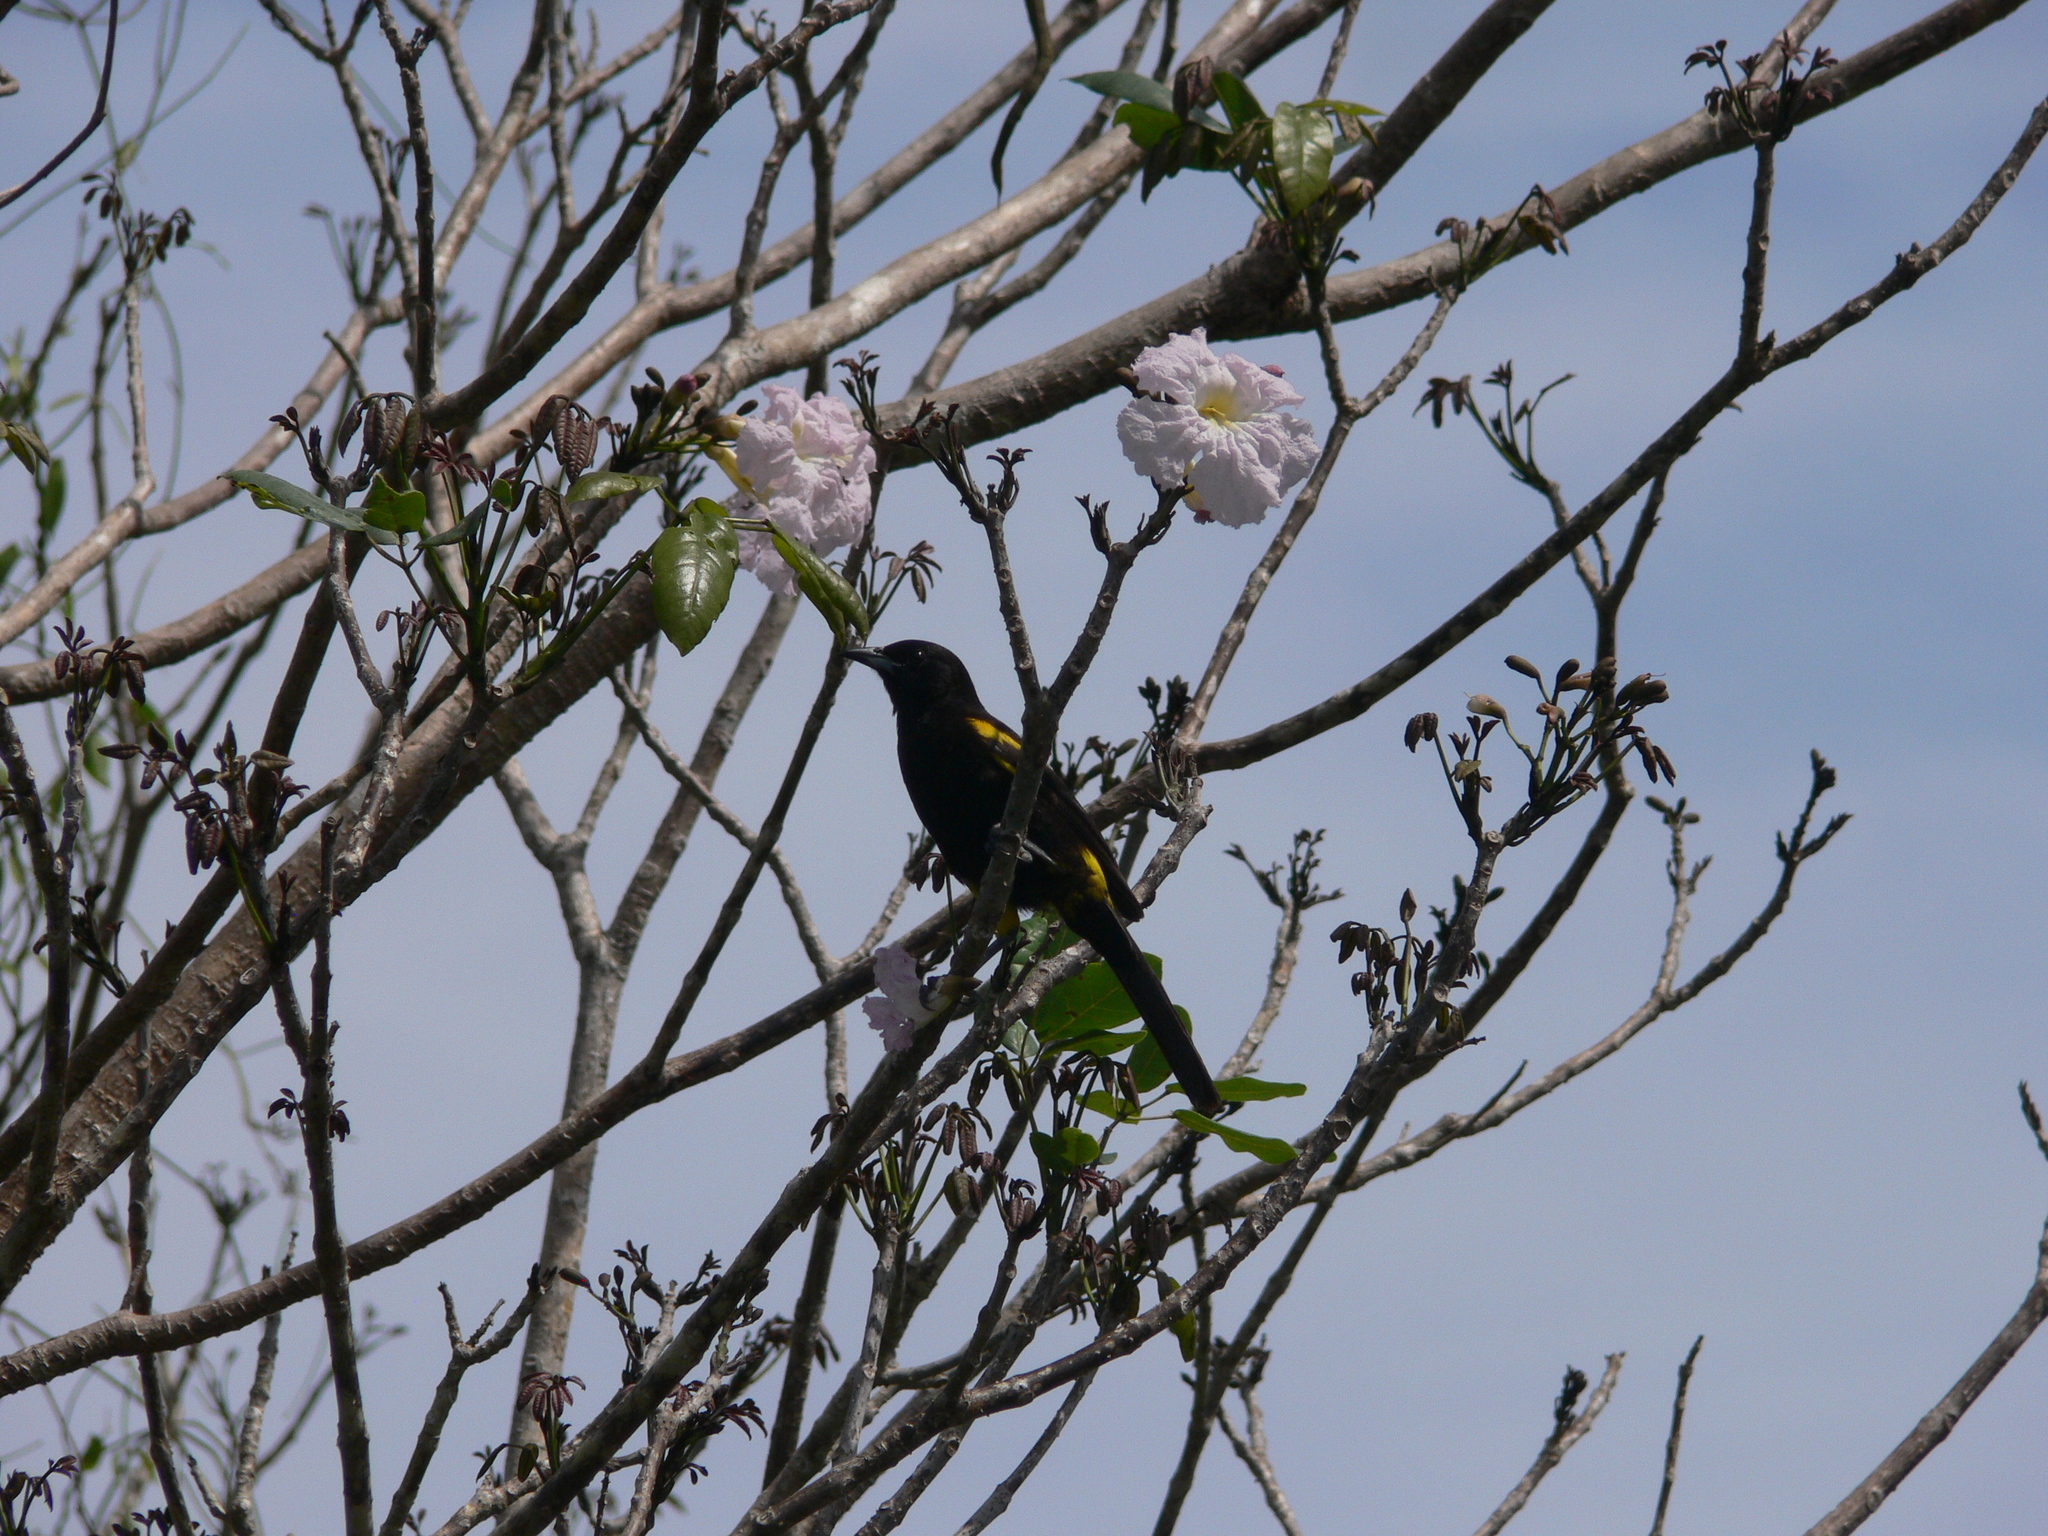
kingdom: Animalia
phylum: Chordata
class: Aves
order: Passeriformes
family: Icteridae
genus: Icterus
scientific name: Icterus dominicensis
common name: Hispaniolan oriole
